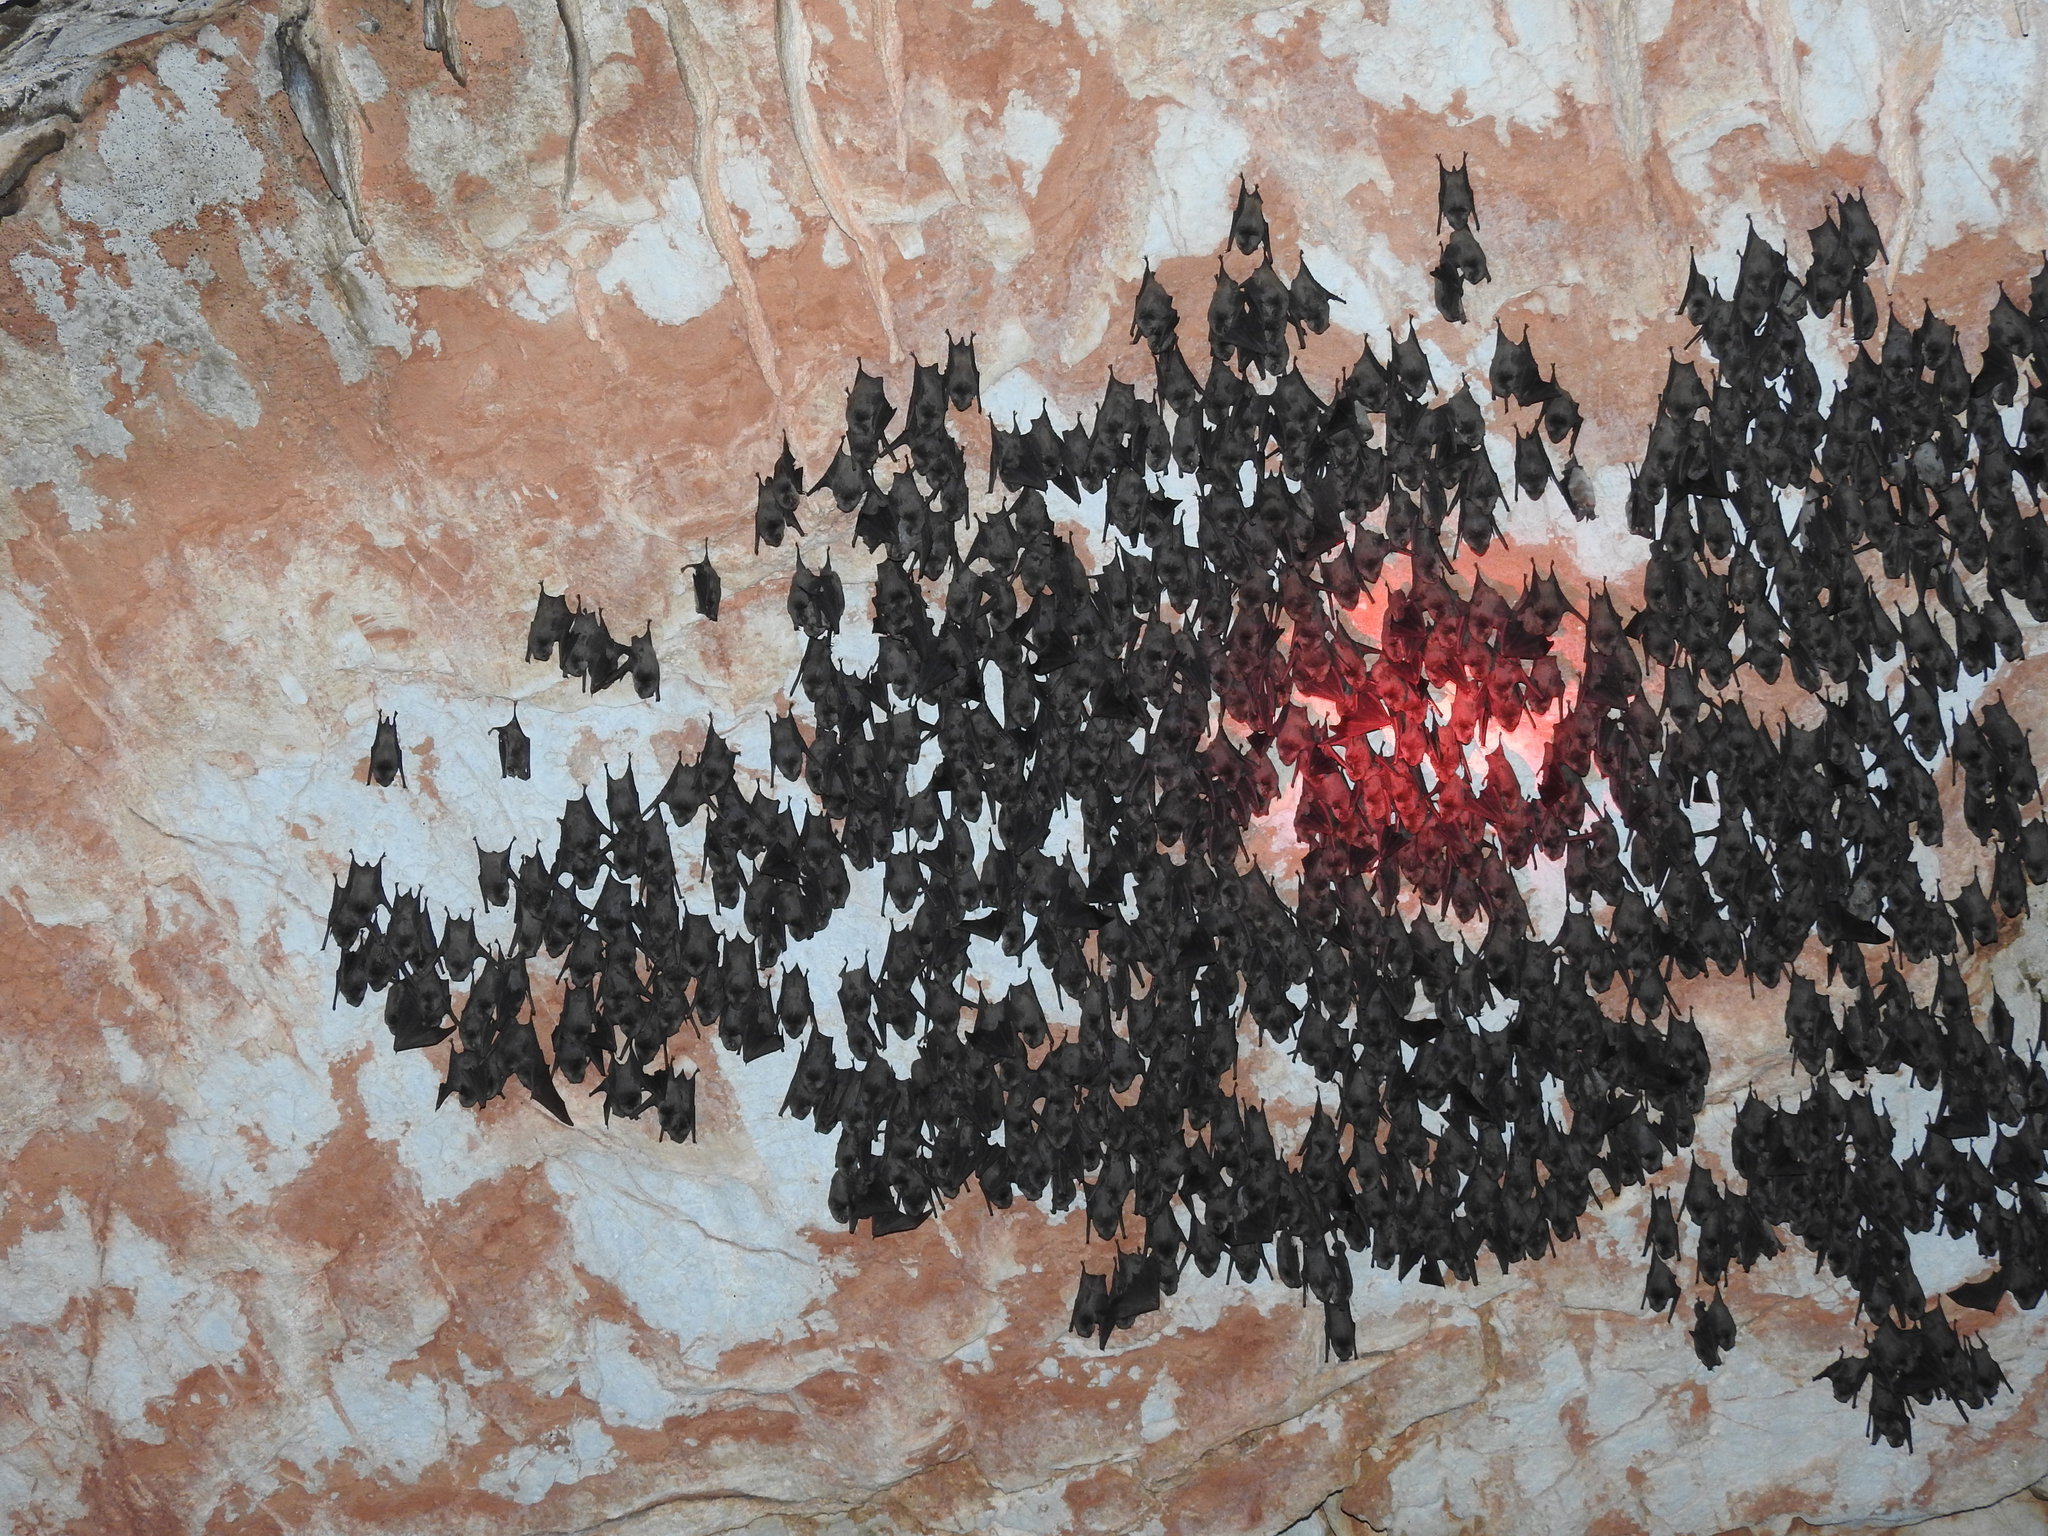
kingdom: Animalia
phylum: Chordata
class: Mammalia
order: Chiroptera
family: Miniopteridae
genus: Miniopterus
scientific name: Miniopterus schreibersii
